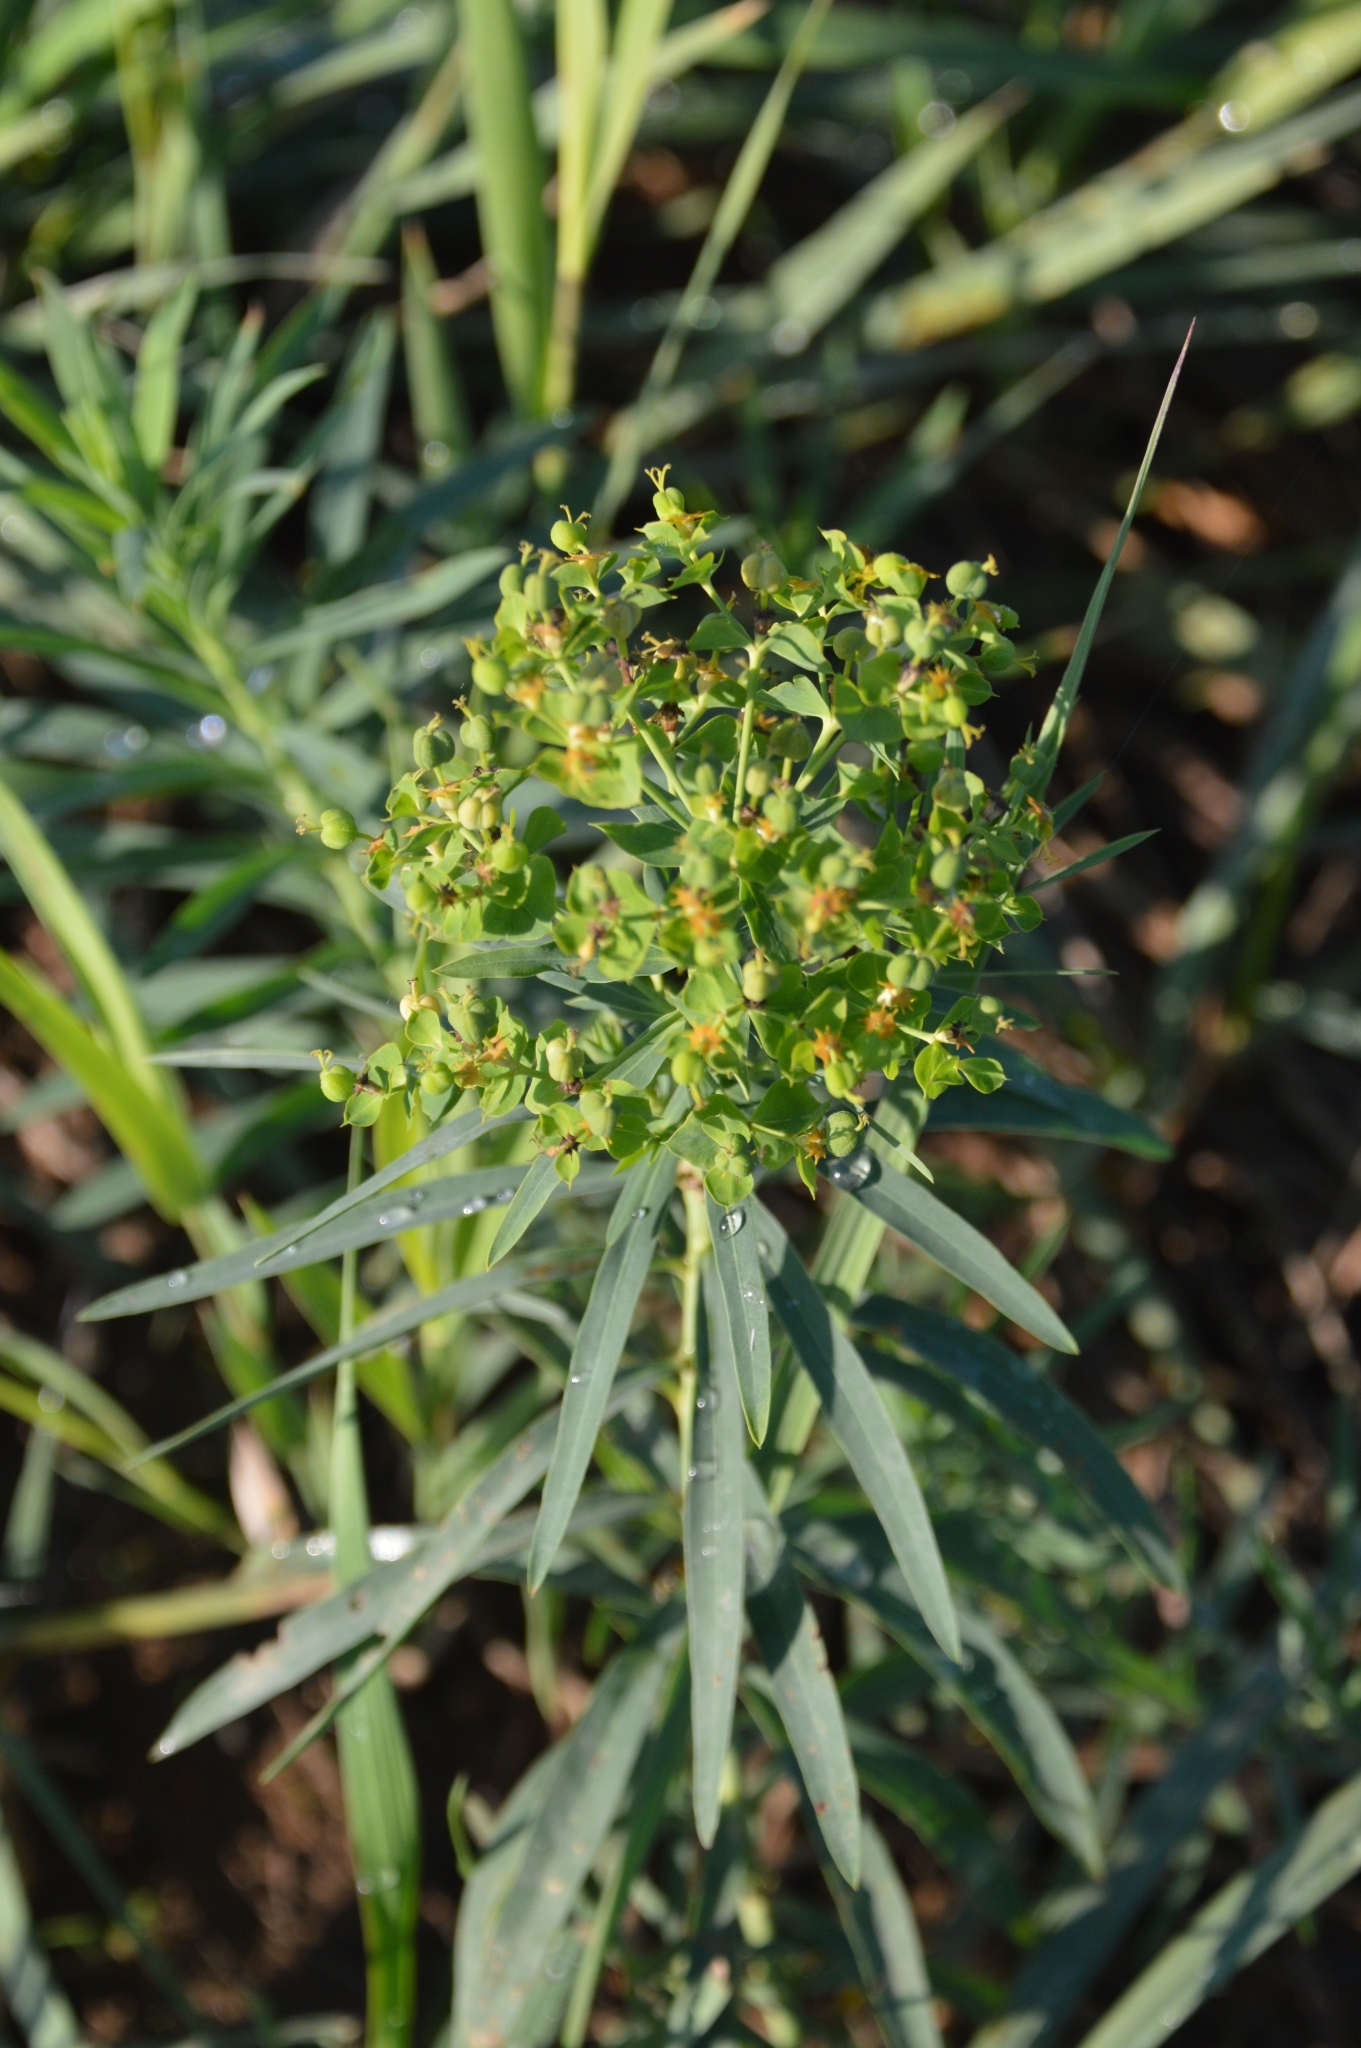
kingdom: Plantae
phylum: Tracheophyta
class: Magnoliopsida
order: Malpighiales
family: Euphorbiaceae
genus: Euphorbia
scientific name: Euphorbia virgata
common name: Leafy spurge
